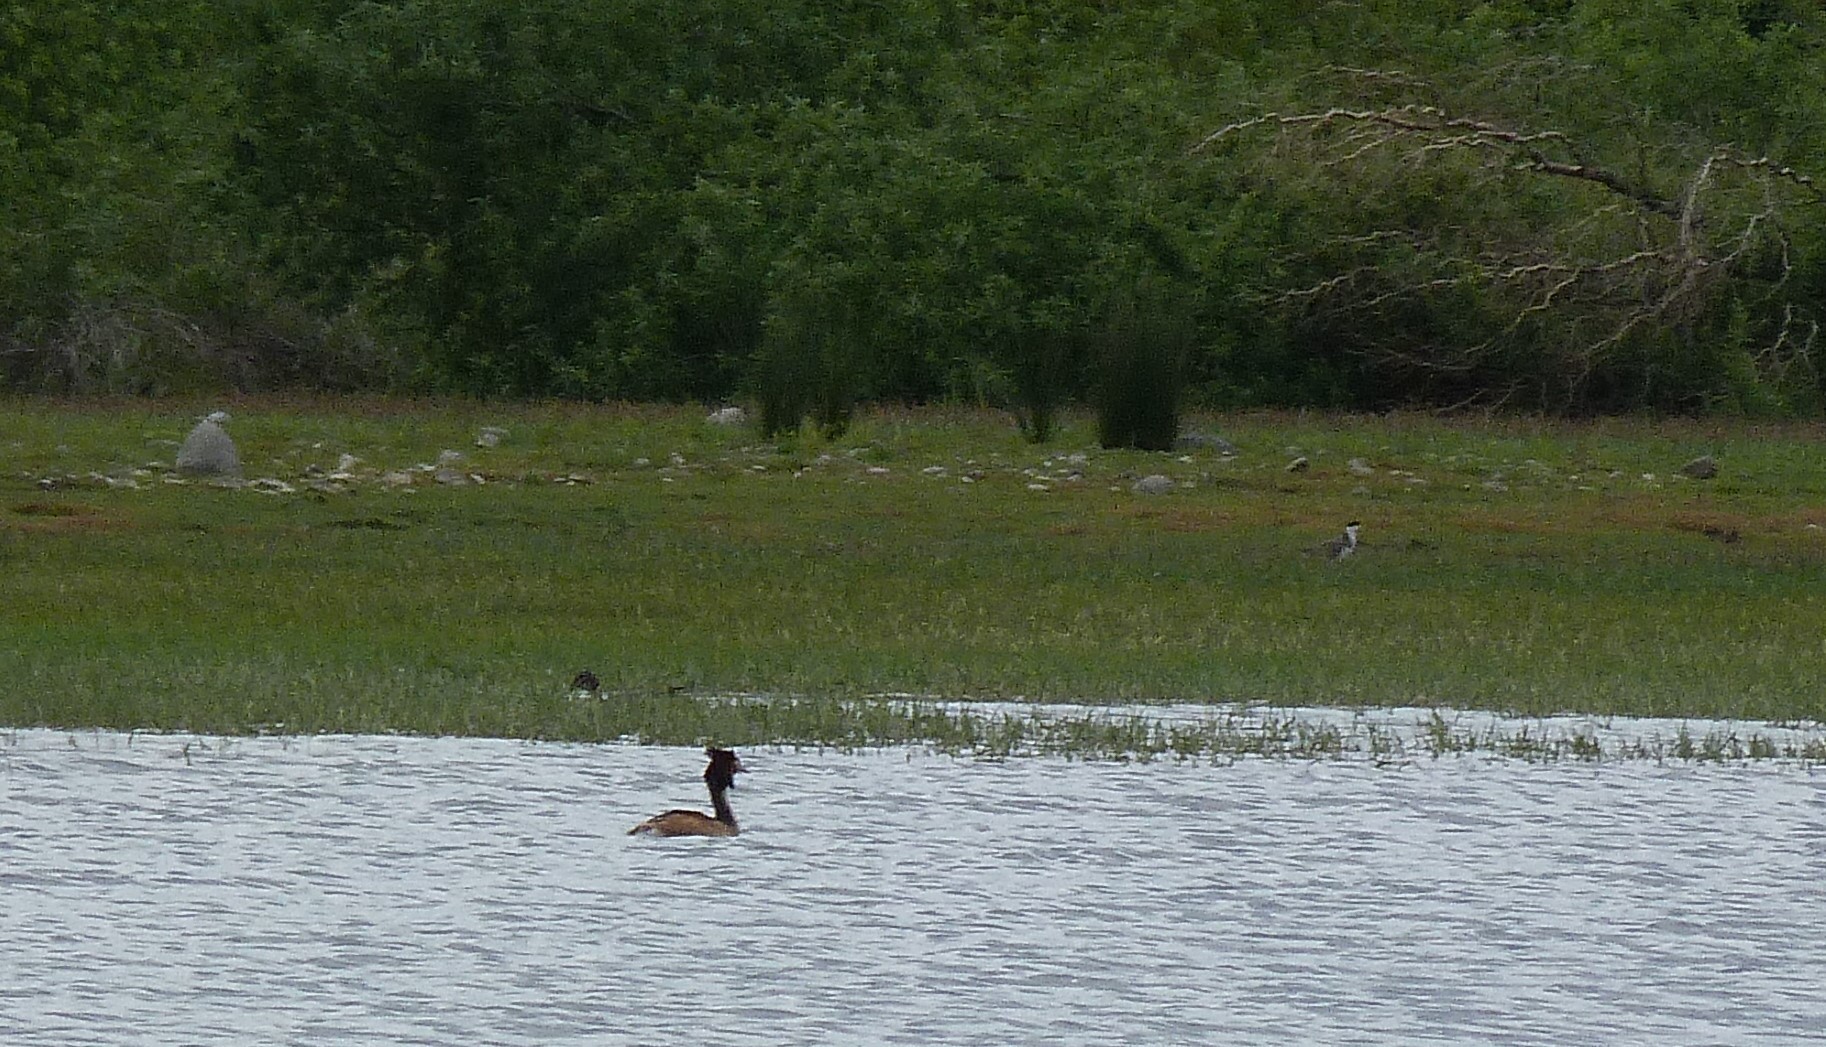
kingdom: Animalia
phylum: Chordata
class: Aves
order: Podicipediformes
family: Podicipedidae
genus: Podiceps
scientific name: Podiceps cristatus
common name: Great crested grebe
